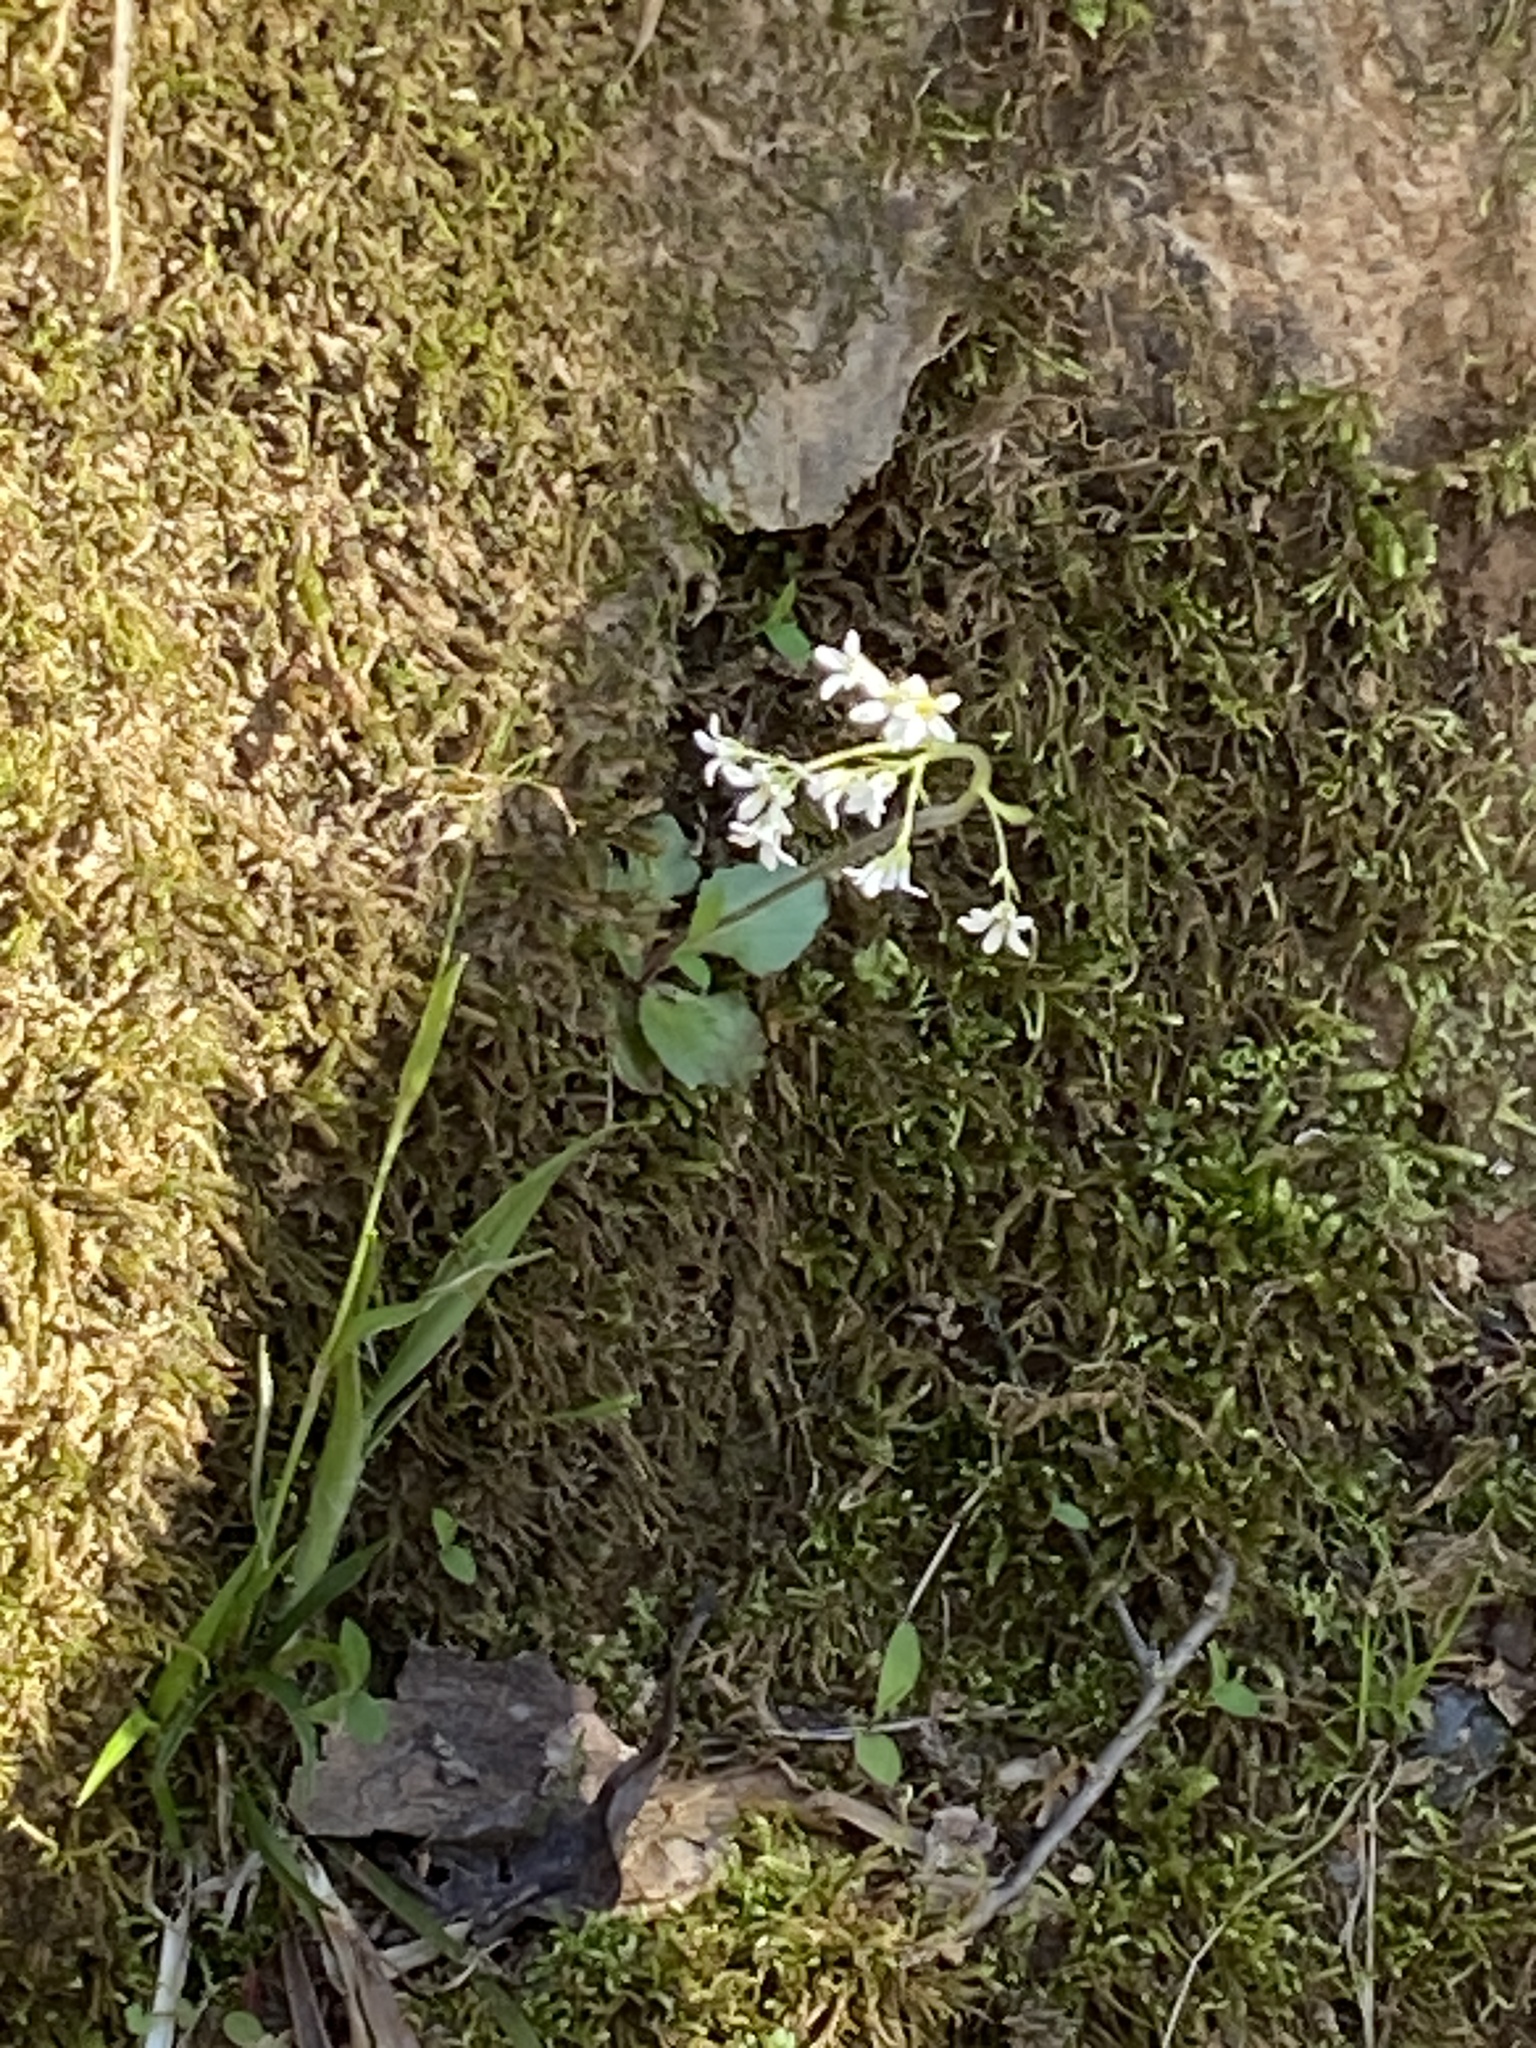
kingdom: Plantae
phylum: Tracheophyta
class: Magnoliopsida
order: Saxifragales
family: Saxifragaceae
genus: Micranthes
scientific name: Micranthes virginiensis
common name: Early saxifrage
